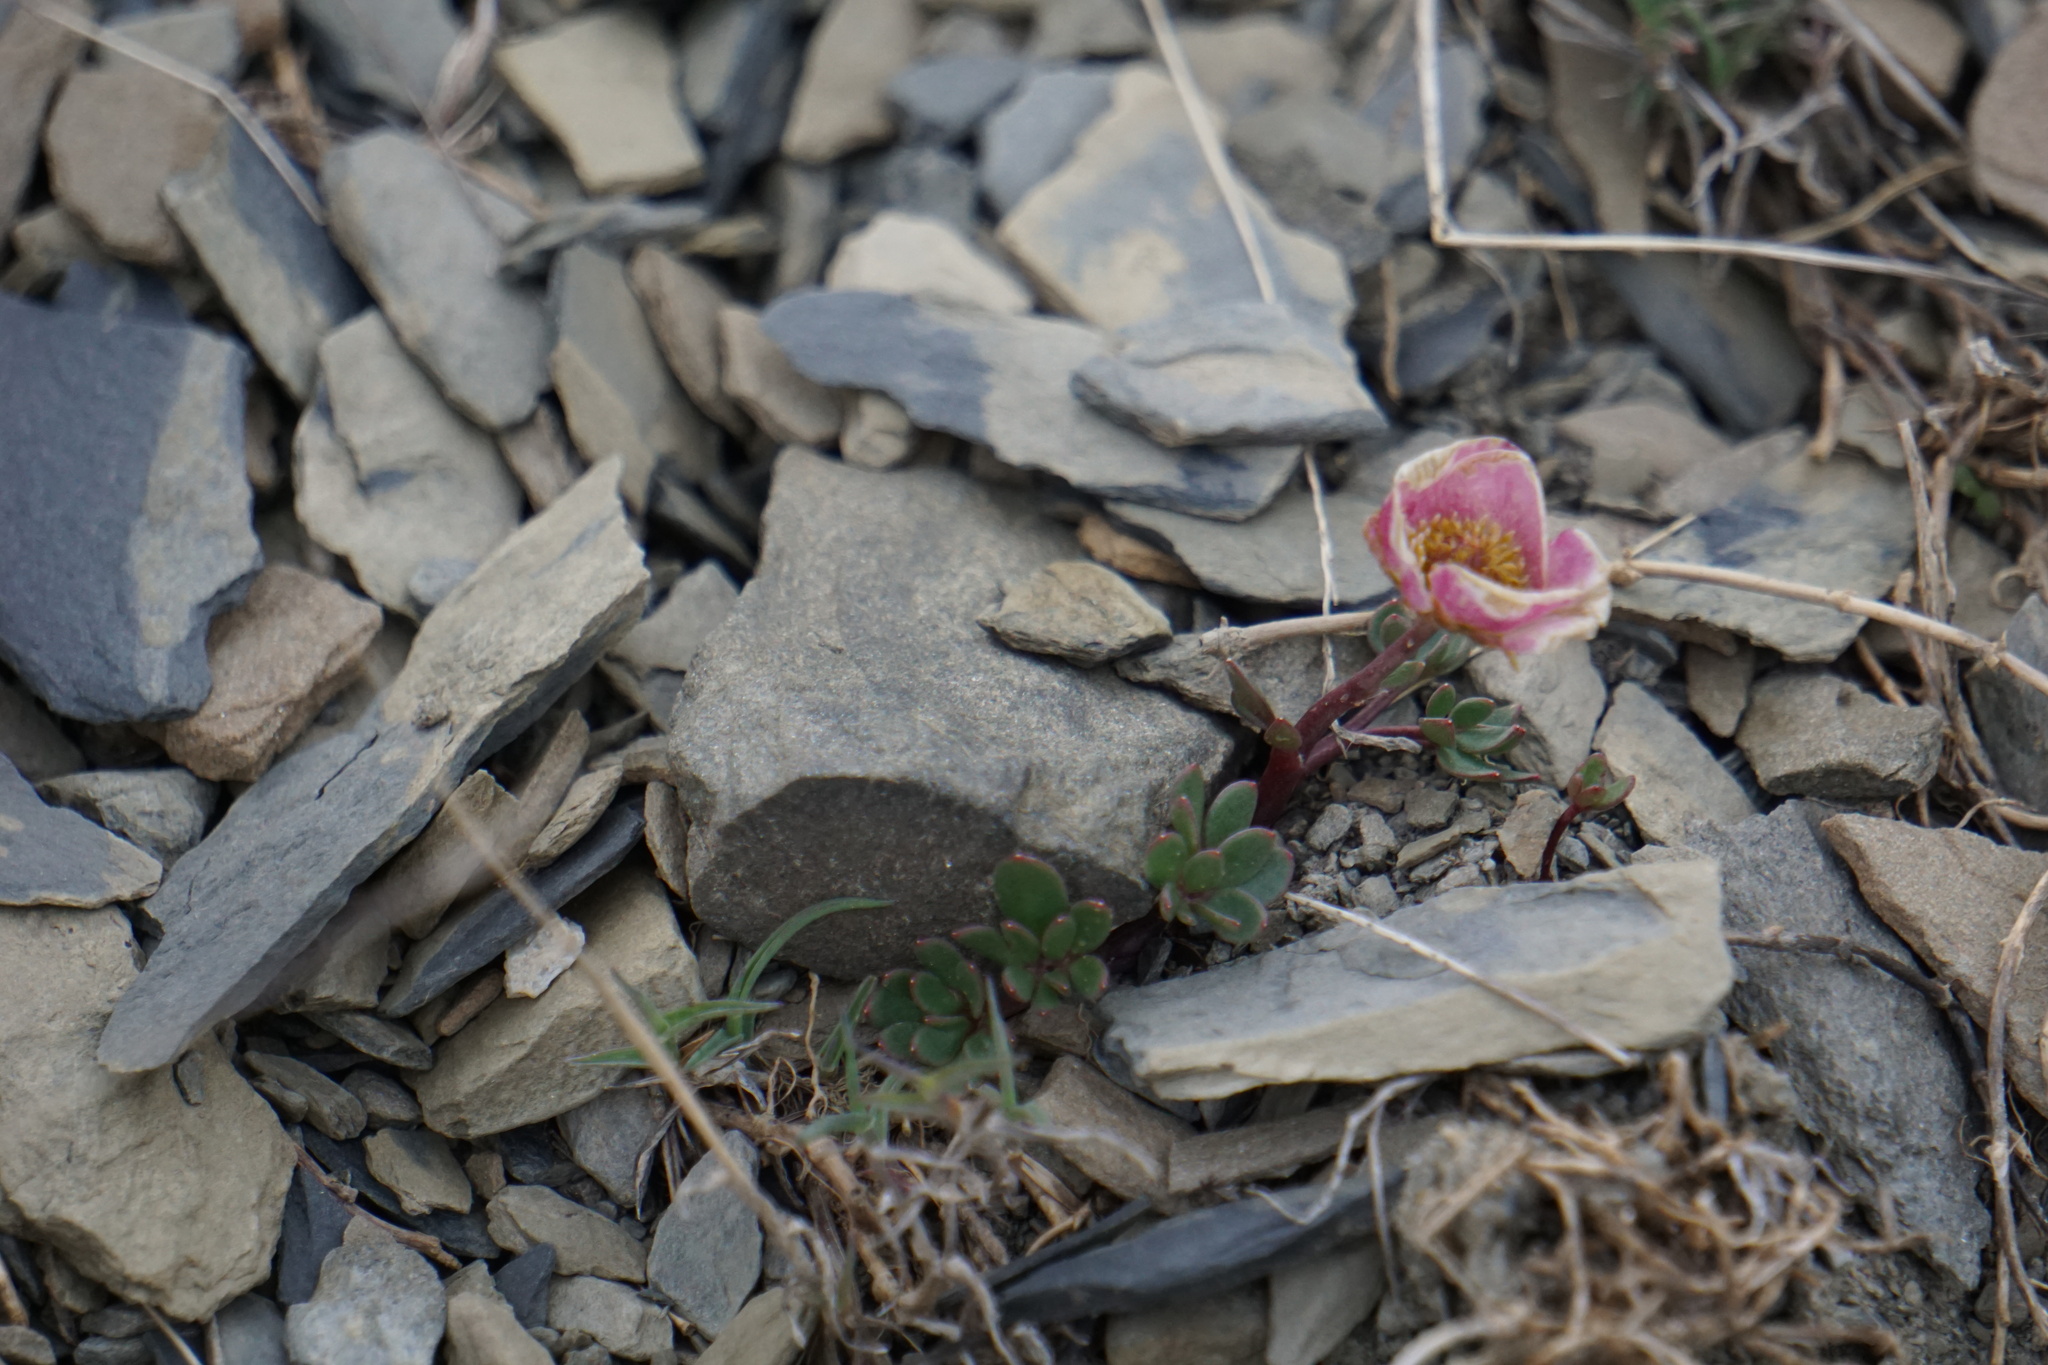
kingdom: Plantae
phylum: Tracheophyta
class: Magnoliopsida
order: Ranunculales
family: Ranunculaceae
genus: Ranunculus
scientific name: Ranunculus glacialis
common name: Glacier buttercup
